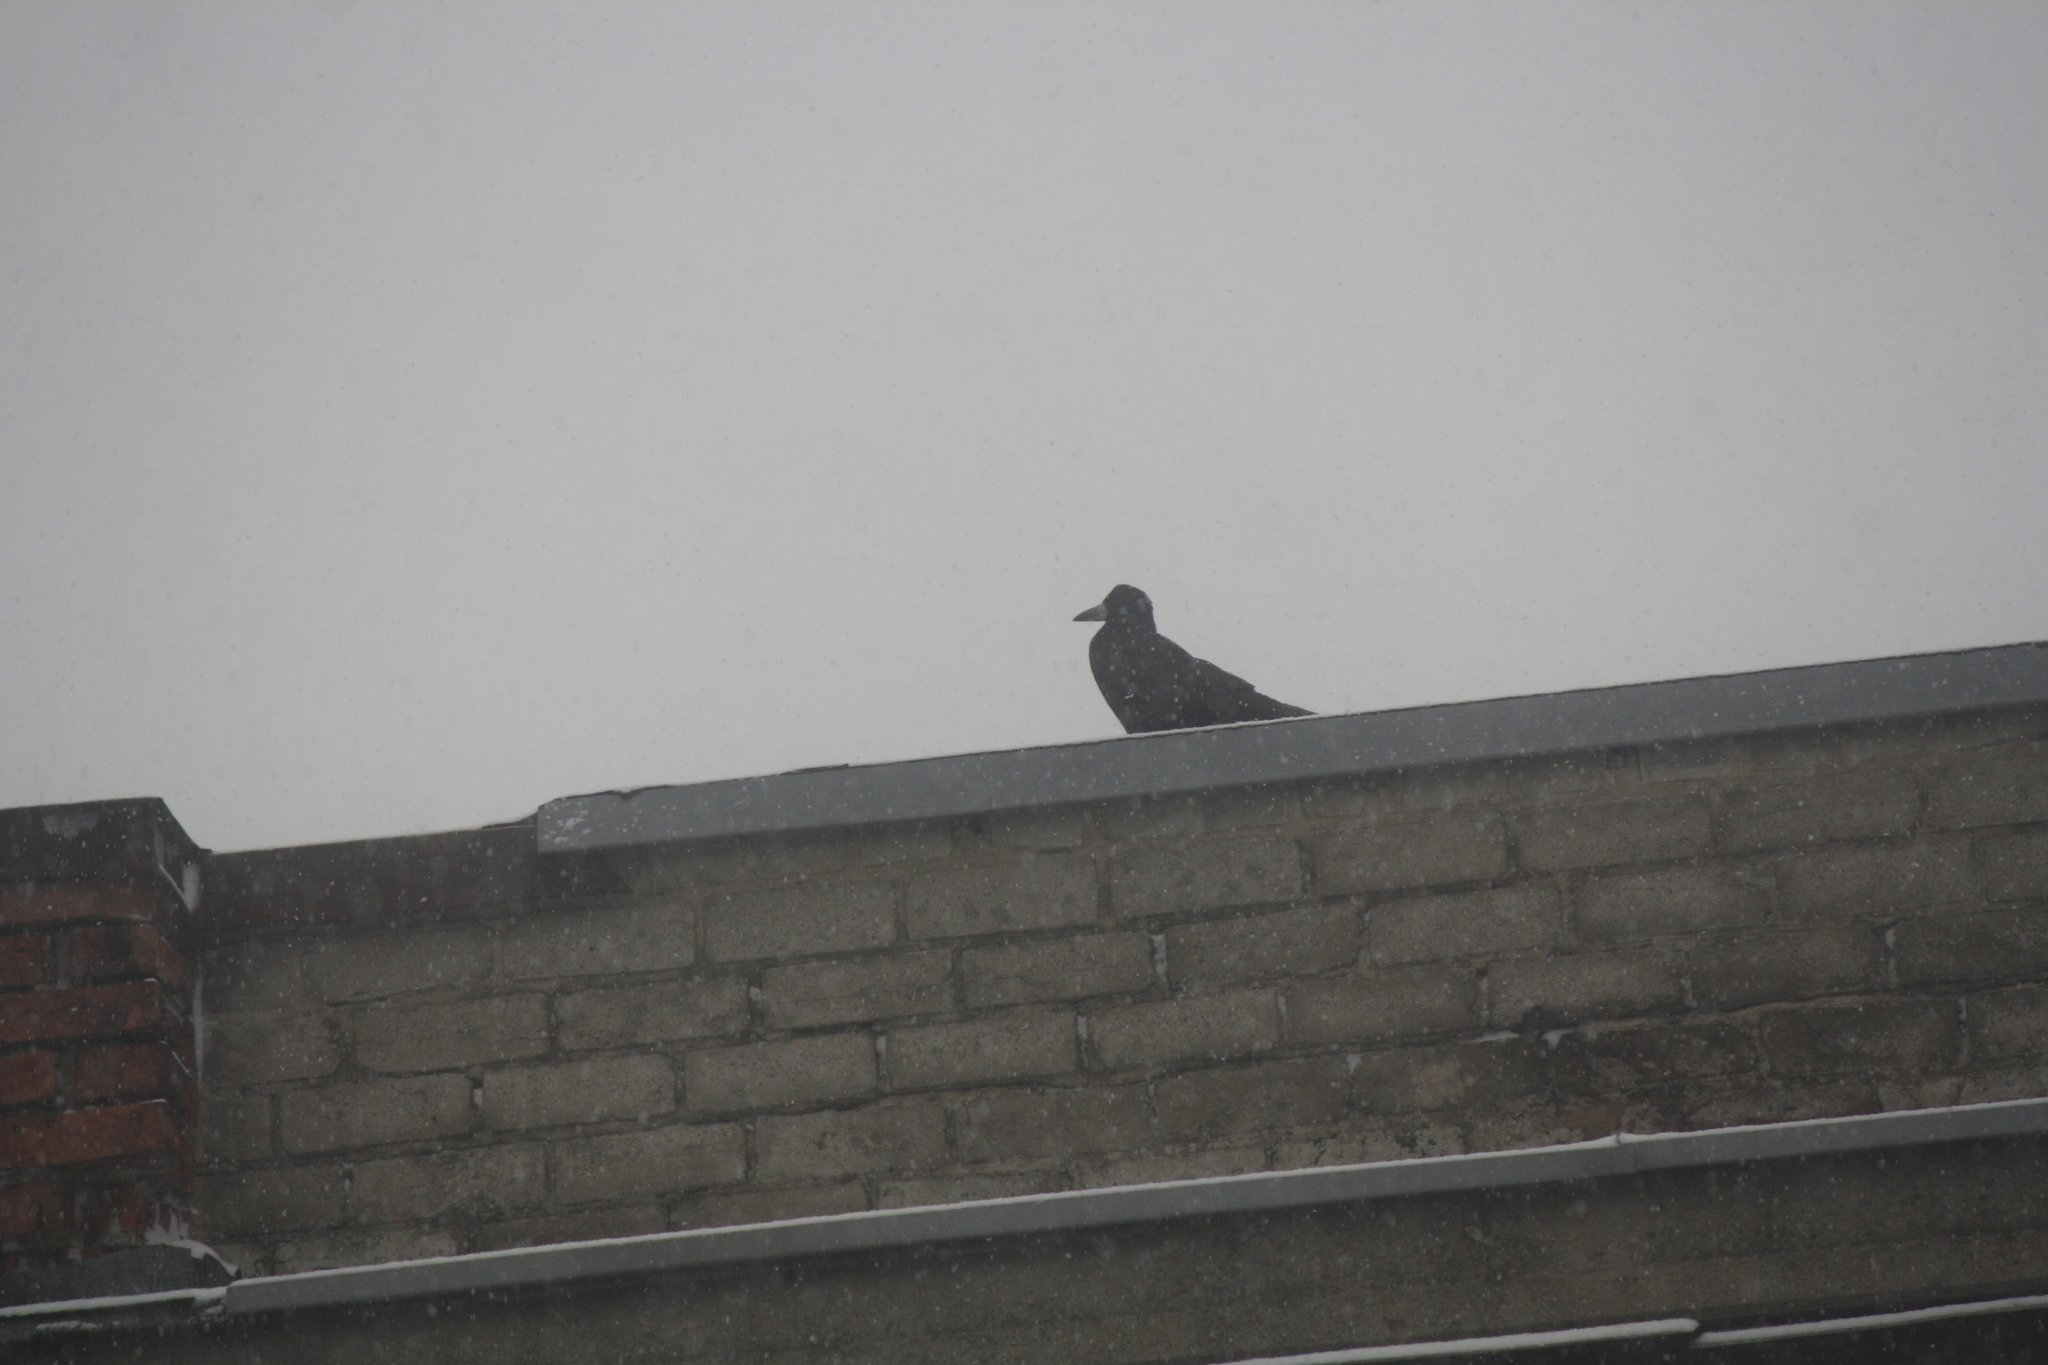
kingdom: Animalia
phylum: Chordata
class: Aves
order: Passeriformes
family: Corvidae
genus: Corvus
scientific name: Corvus frugilegus
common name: Rook
